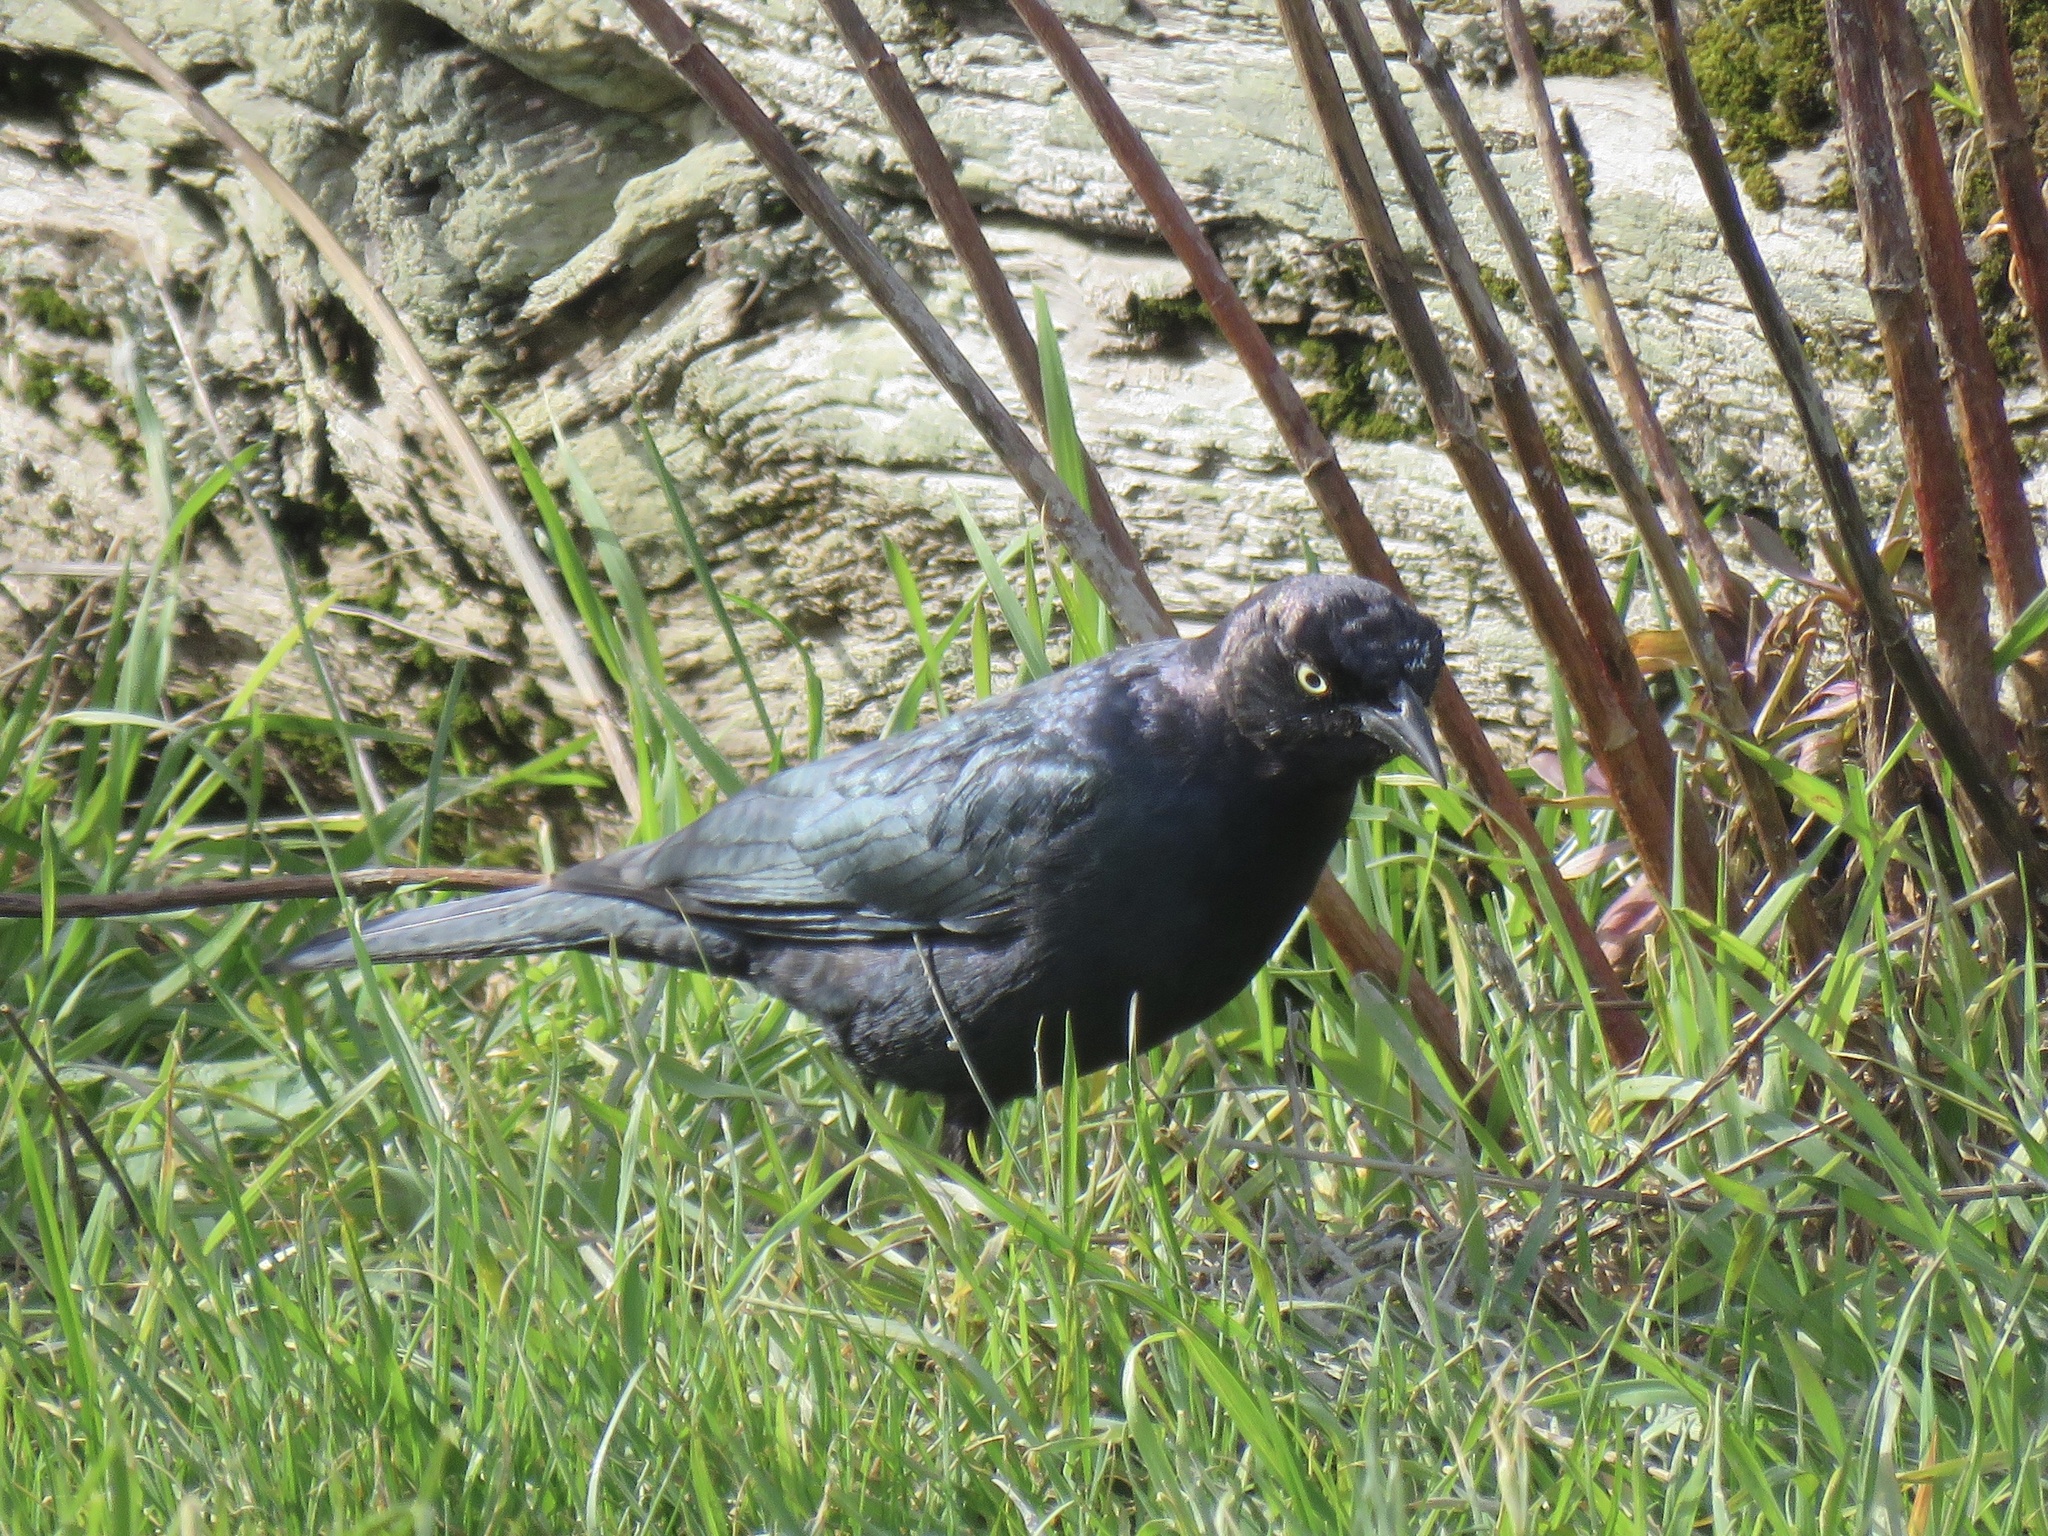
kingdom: Animalia
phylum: Chordata
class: Aves
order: Passeriformes
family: Icteridae
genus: Euphagus
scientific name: Euphagus cyanocephalus
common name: Brewer's blackbird
